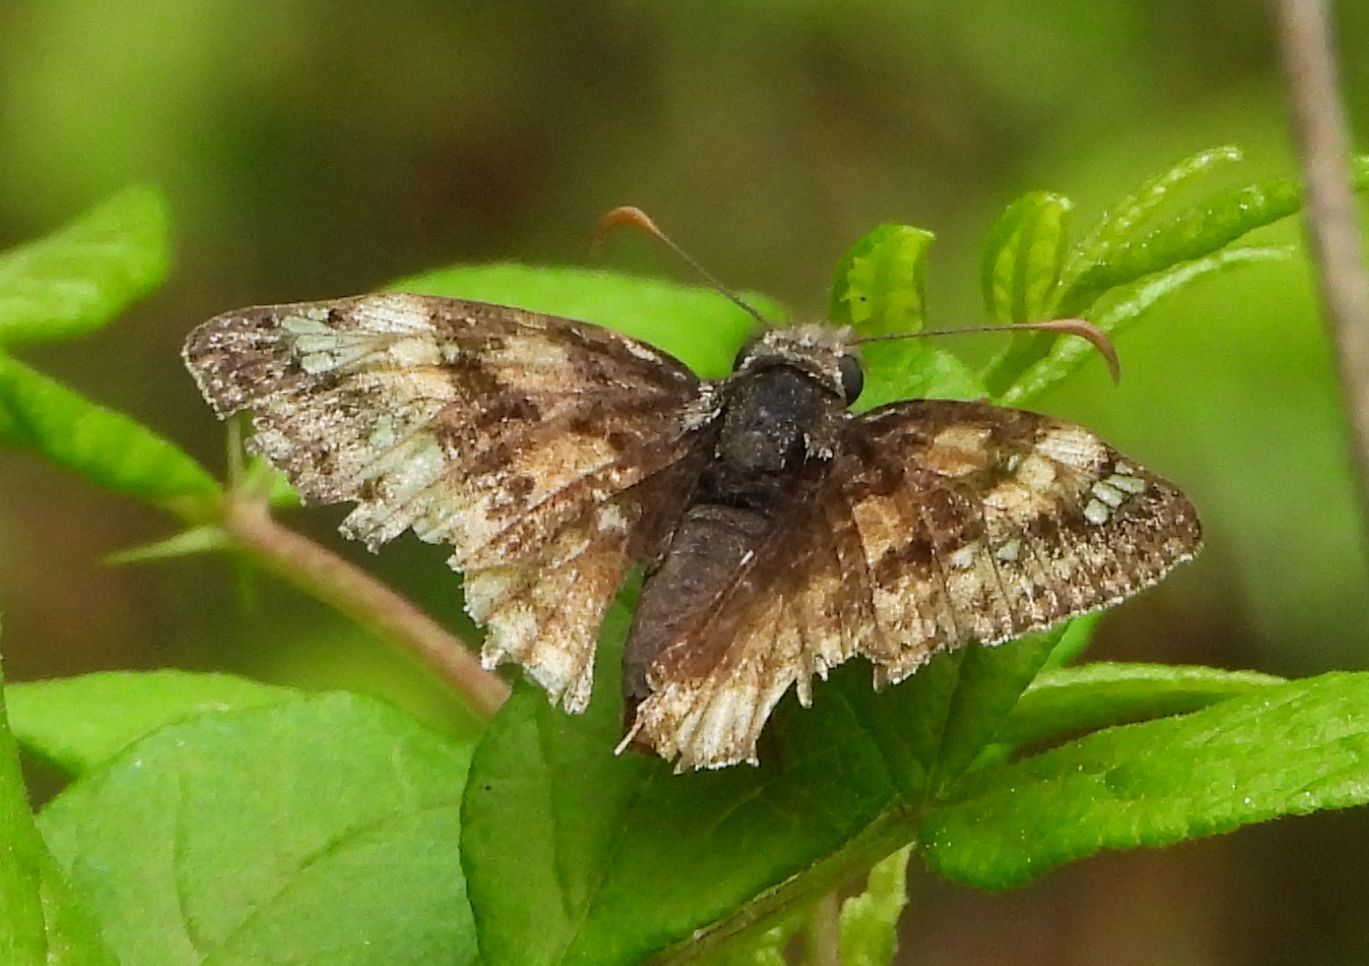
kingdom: Animalia
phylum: Arthropoda
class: Insecta
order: Lepidoptera
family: Hesperiidae
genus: Erynnis
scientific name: Erynnis juvenalis
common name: Juvenal's duskywing
